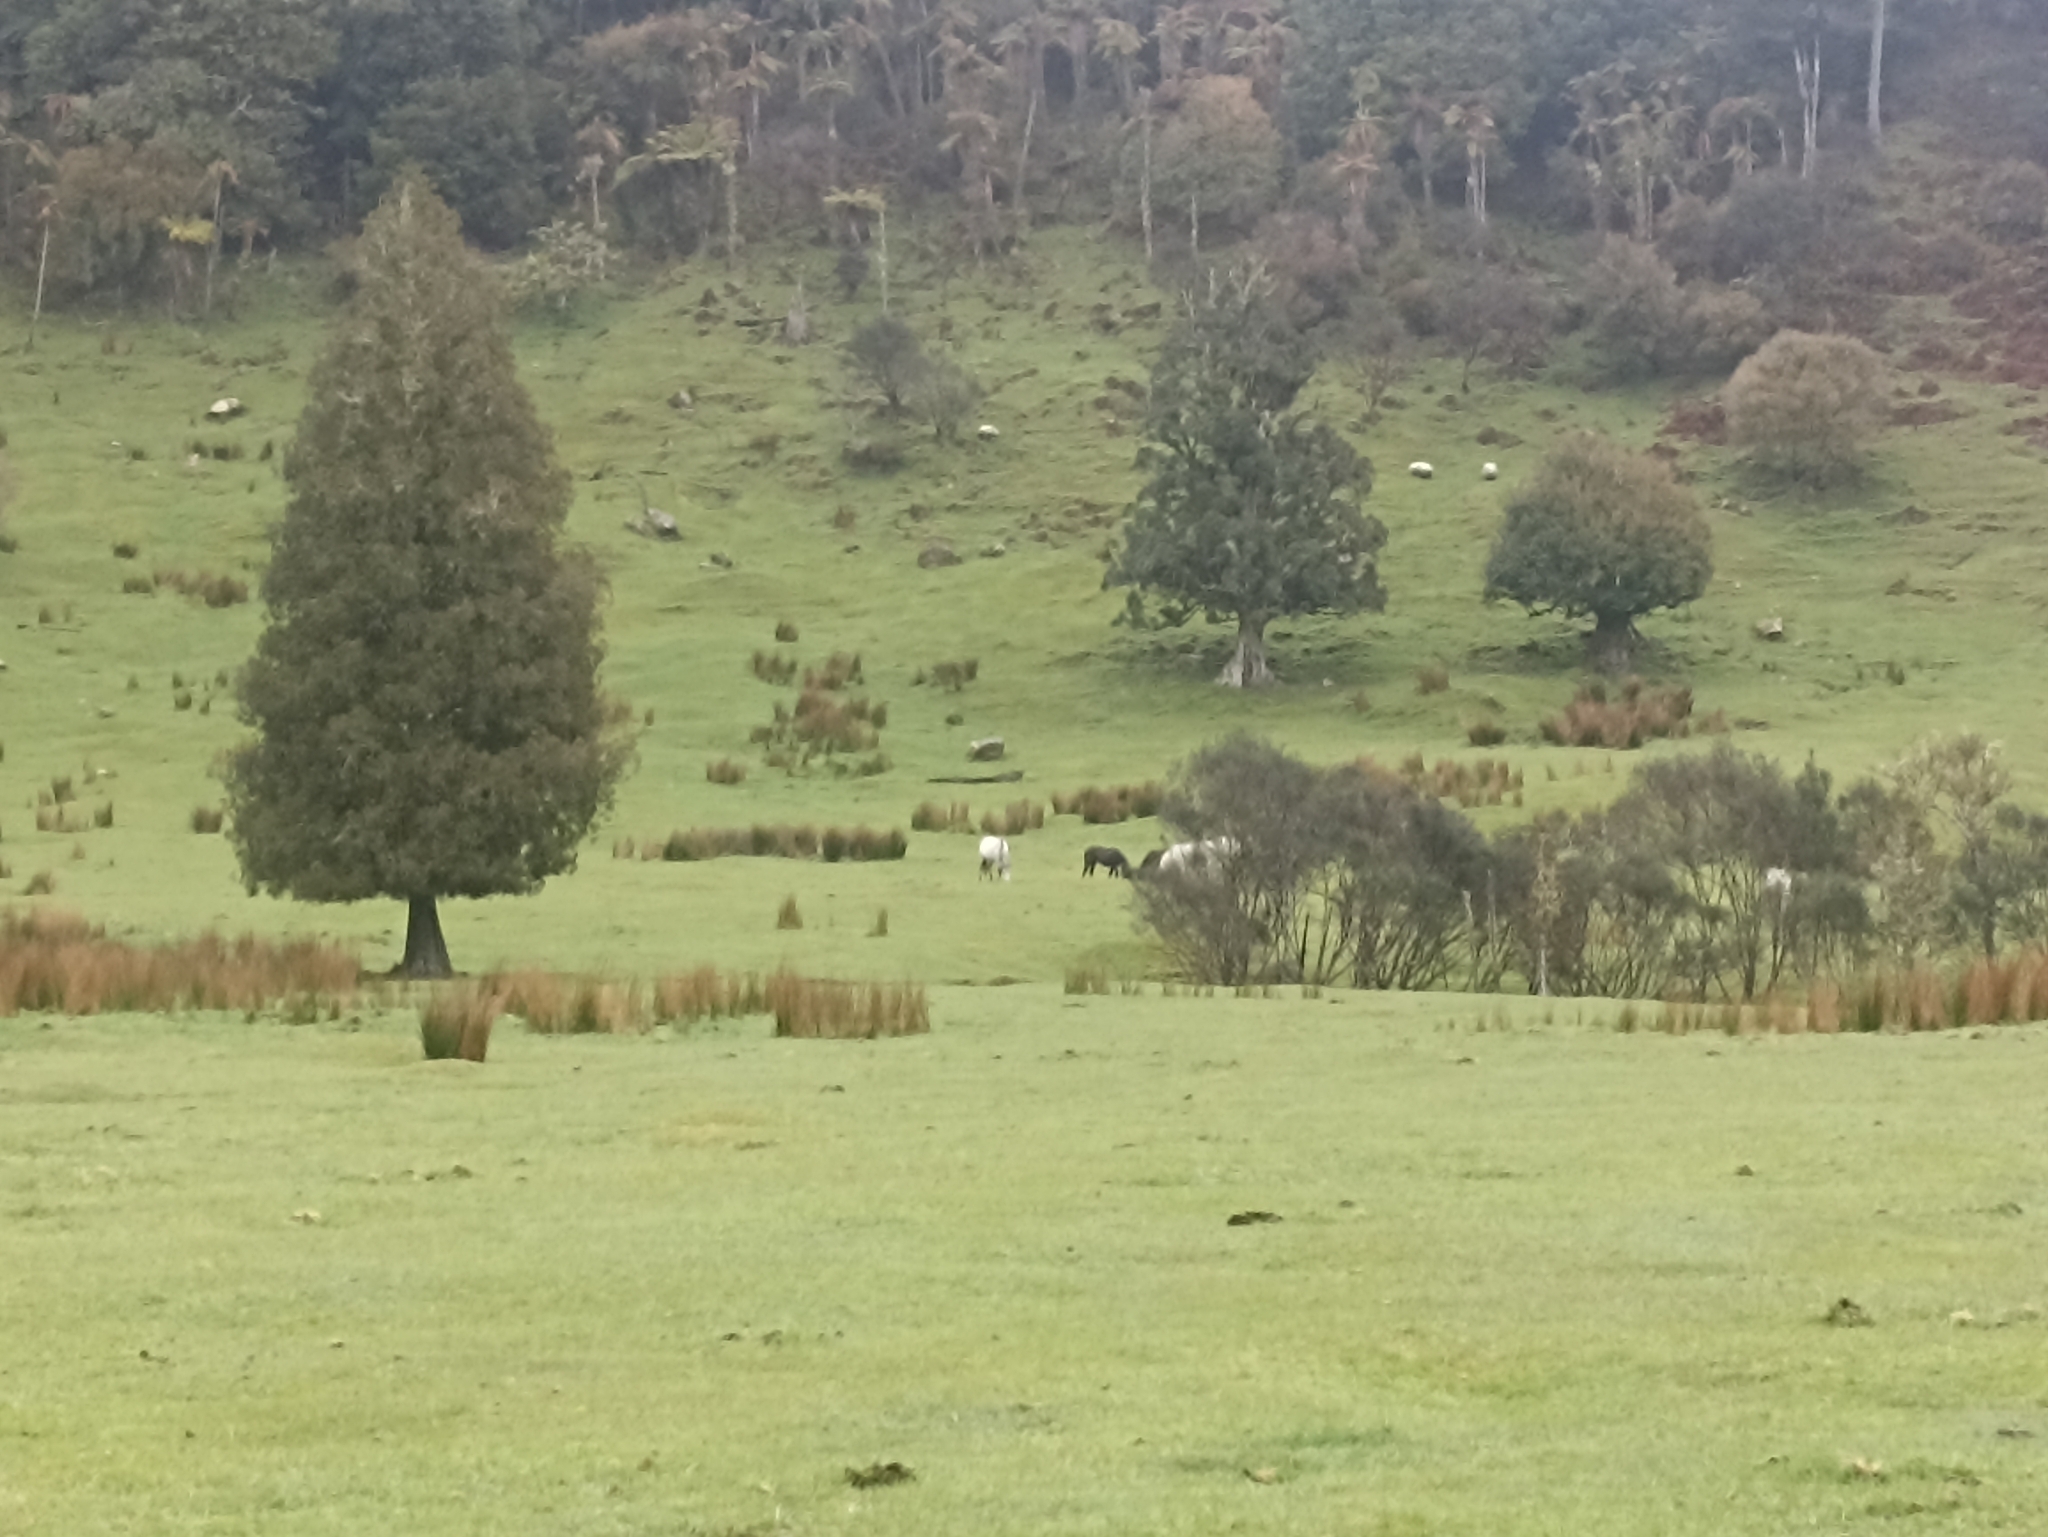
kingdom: Animalia
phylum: Chordata
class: Mammalia
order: Perissodactyla
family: Equidae
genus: Equus
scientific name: Equus caballus
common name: Horse
